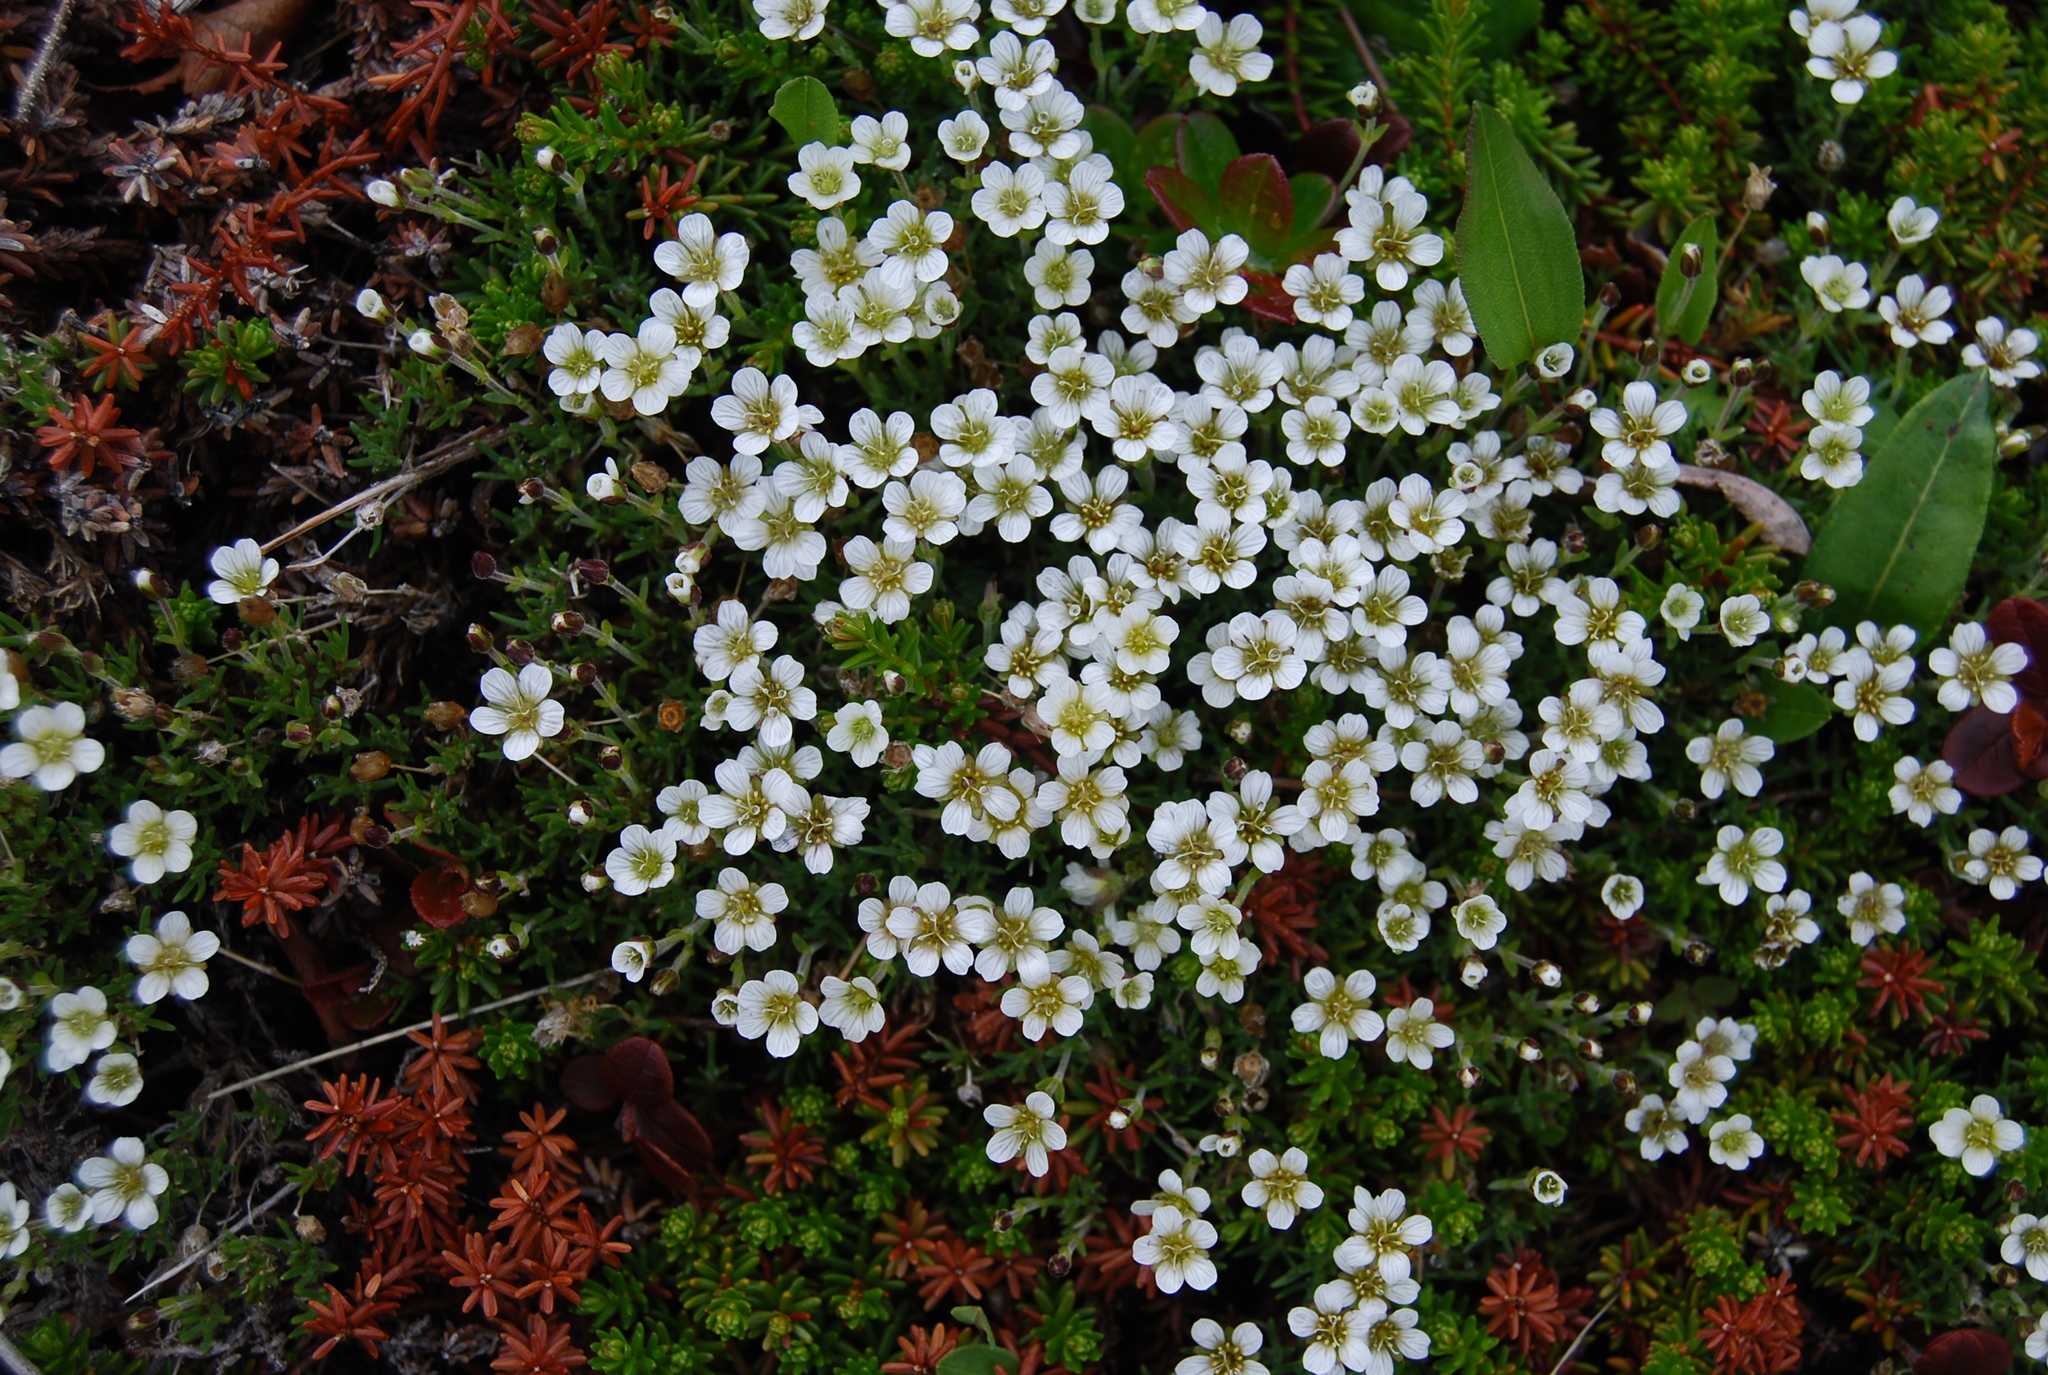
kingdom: Plantae
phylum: Tracheophyta
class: Magnoliopsida
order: Caryophyllales
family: Caryophyllaceae
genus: Cherleria
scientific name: Cherleria obtusiloba
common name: Alpine stitchwort
